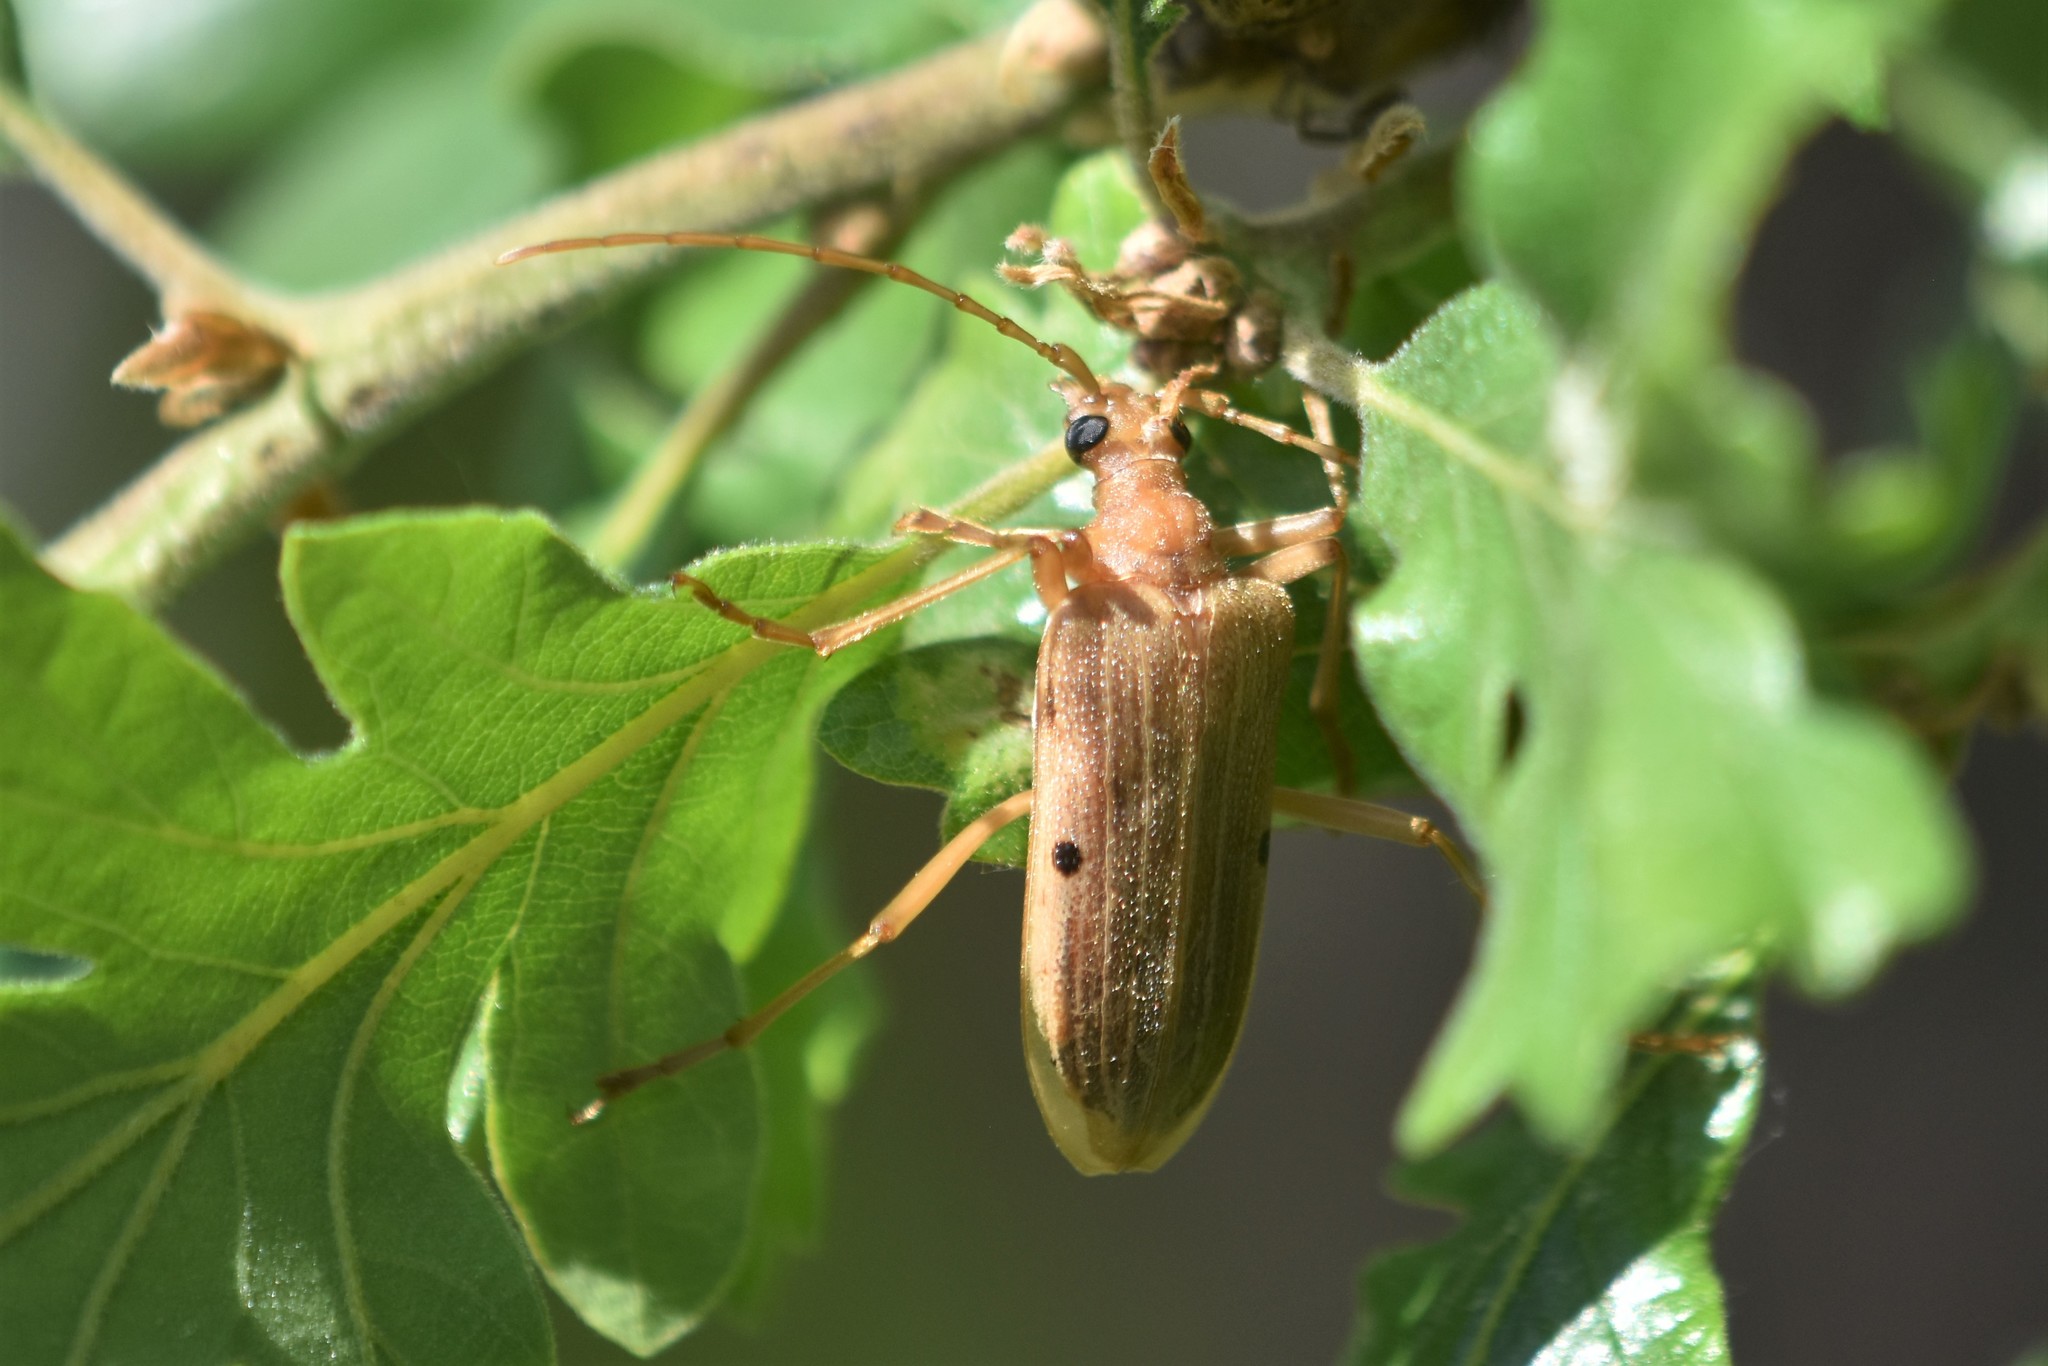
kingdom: Animalia
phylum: Arthropoda
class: Insecta
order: Coleoptera
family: Cerambycidae
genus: Centrodera
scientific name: Centrodera spurca
